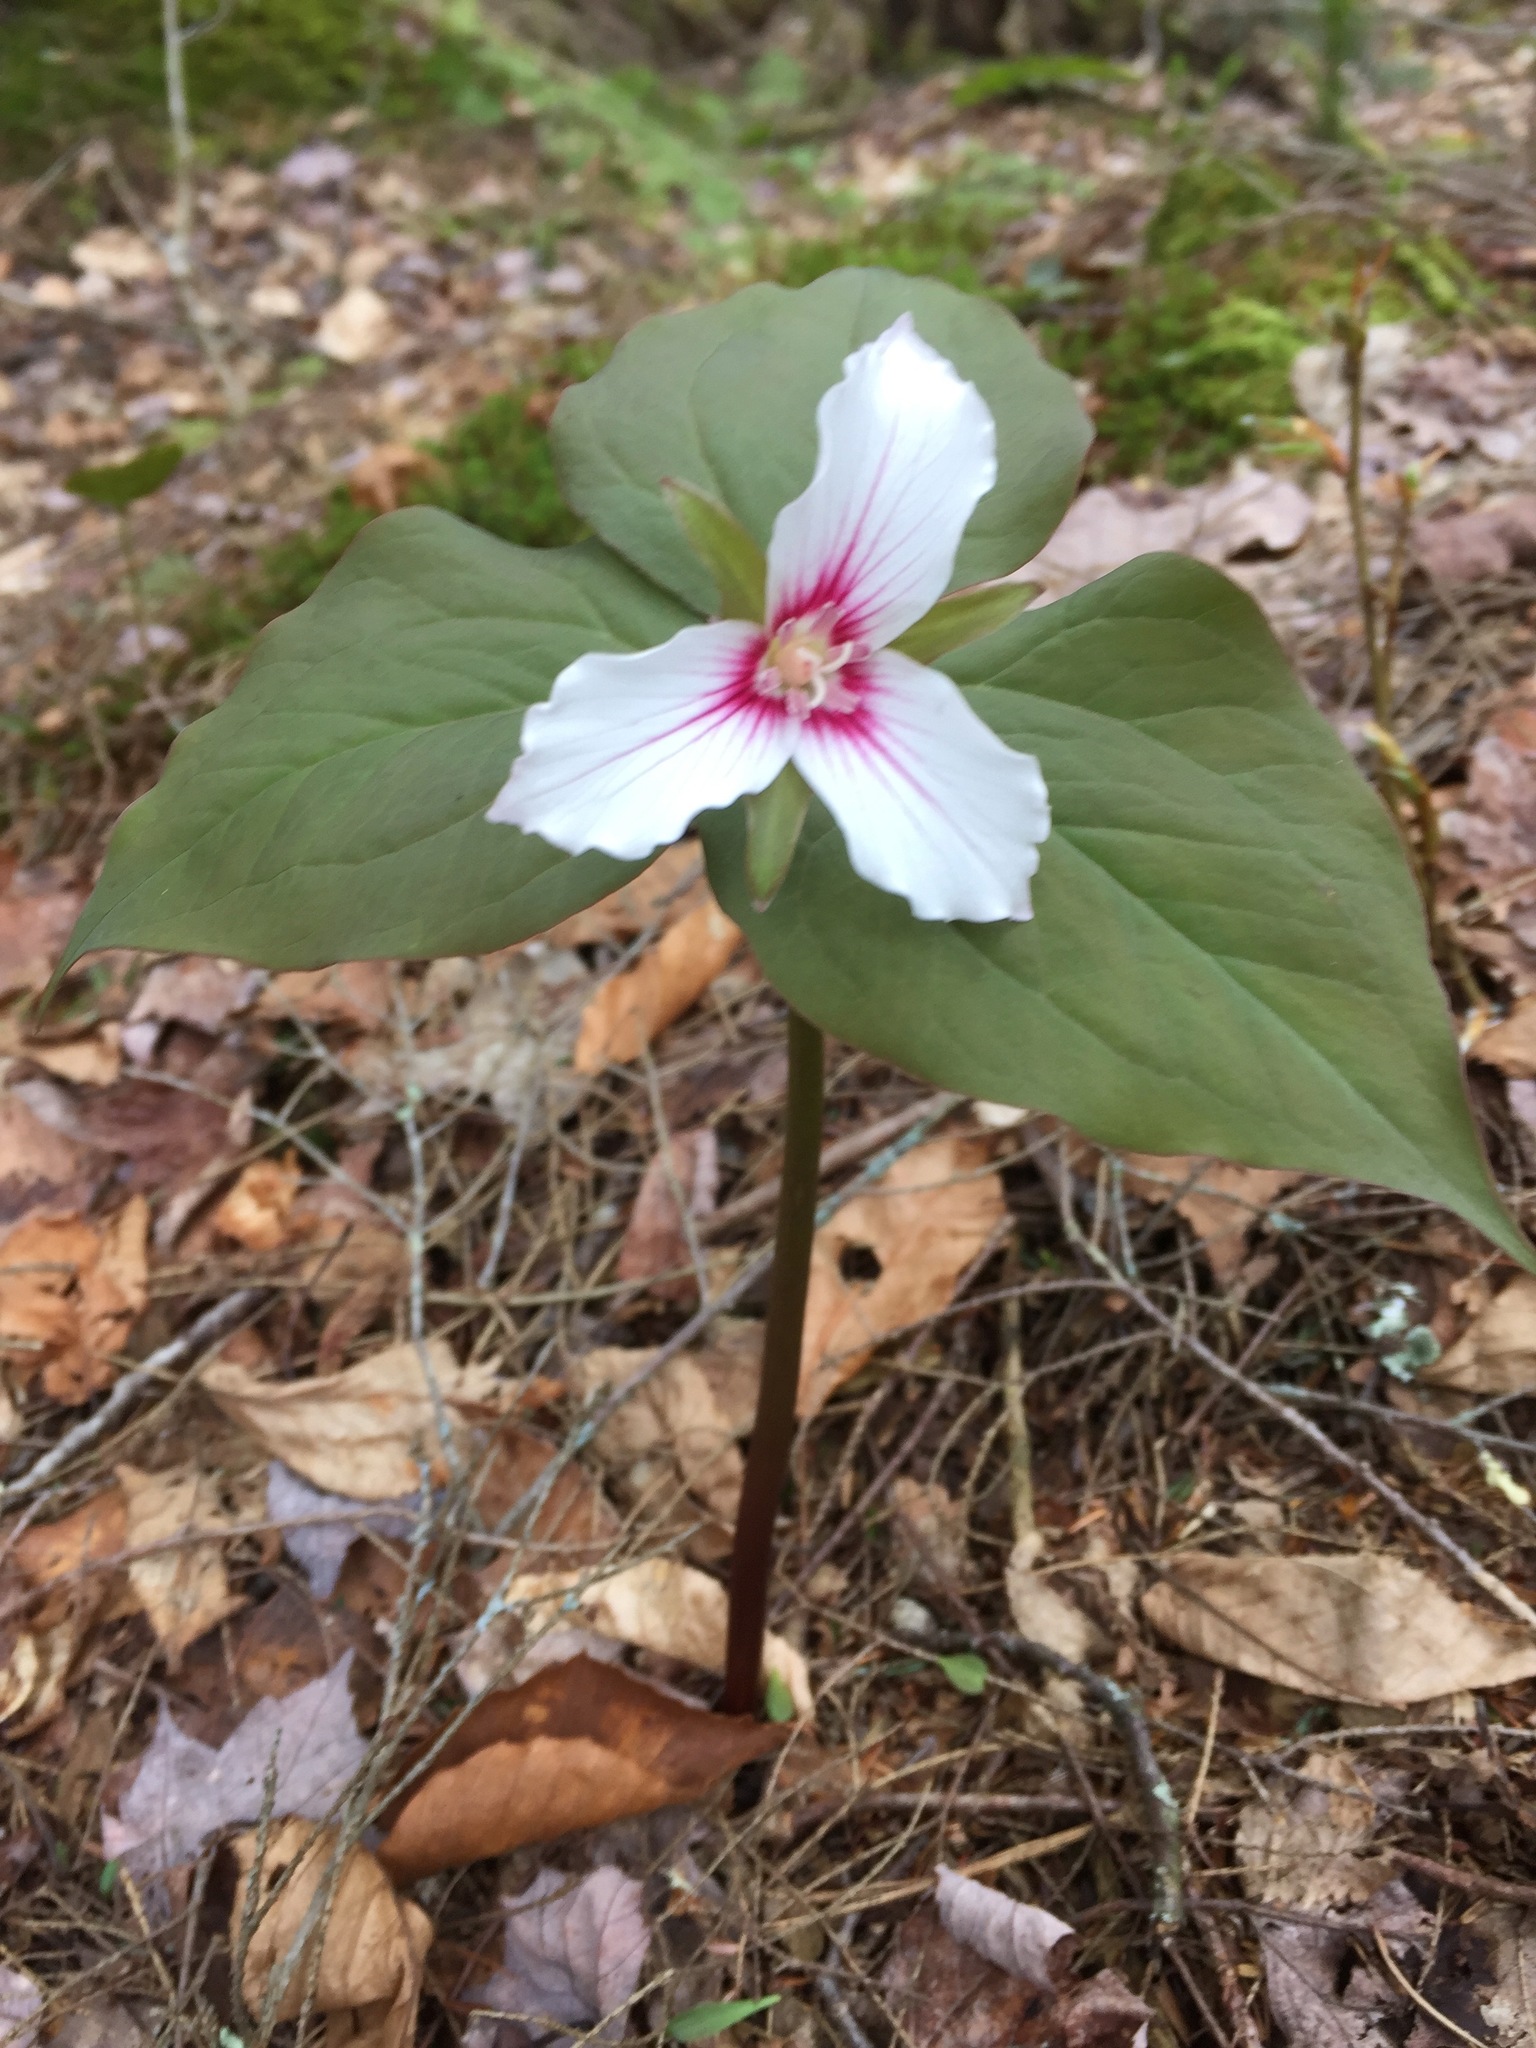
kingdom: Plantae
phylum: Tracheophyta
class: Liliopsida
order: Liliales
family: Melanthiaceae
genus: Trillium
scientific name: Trillium undulatum
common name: Paint trillium
